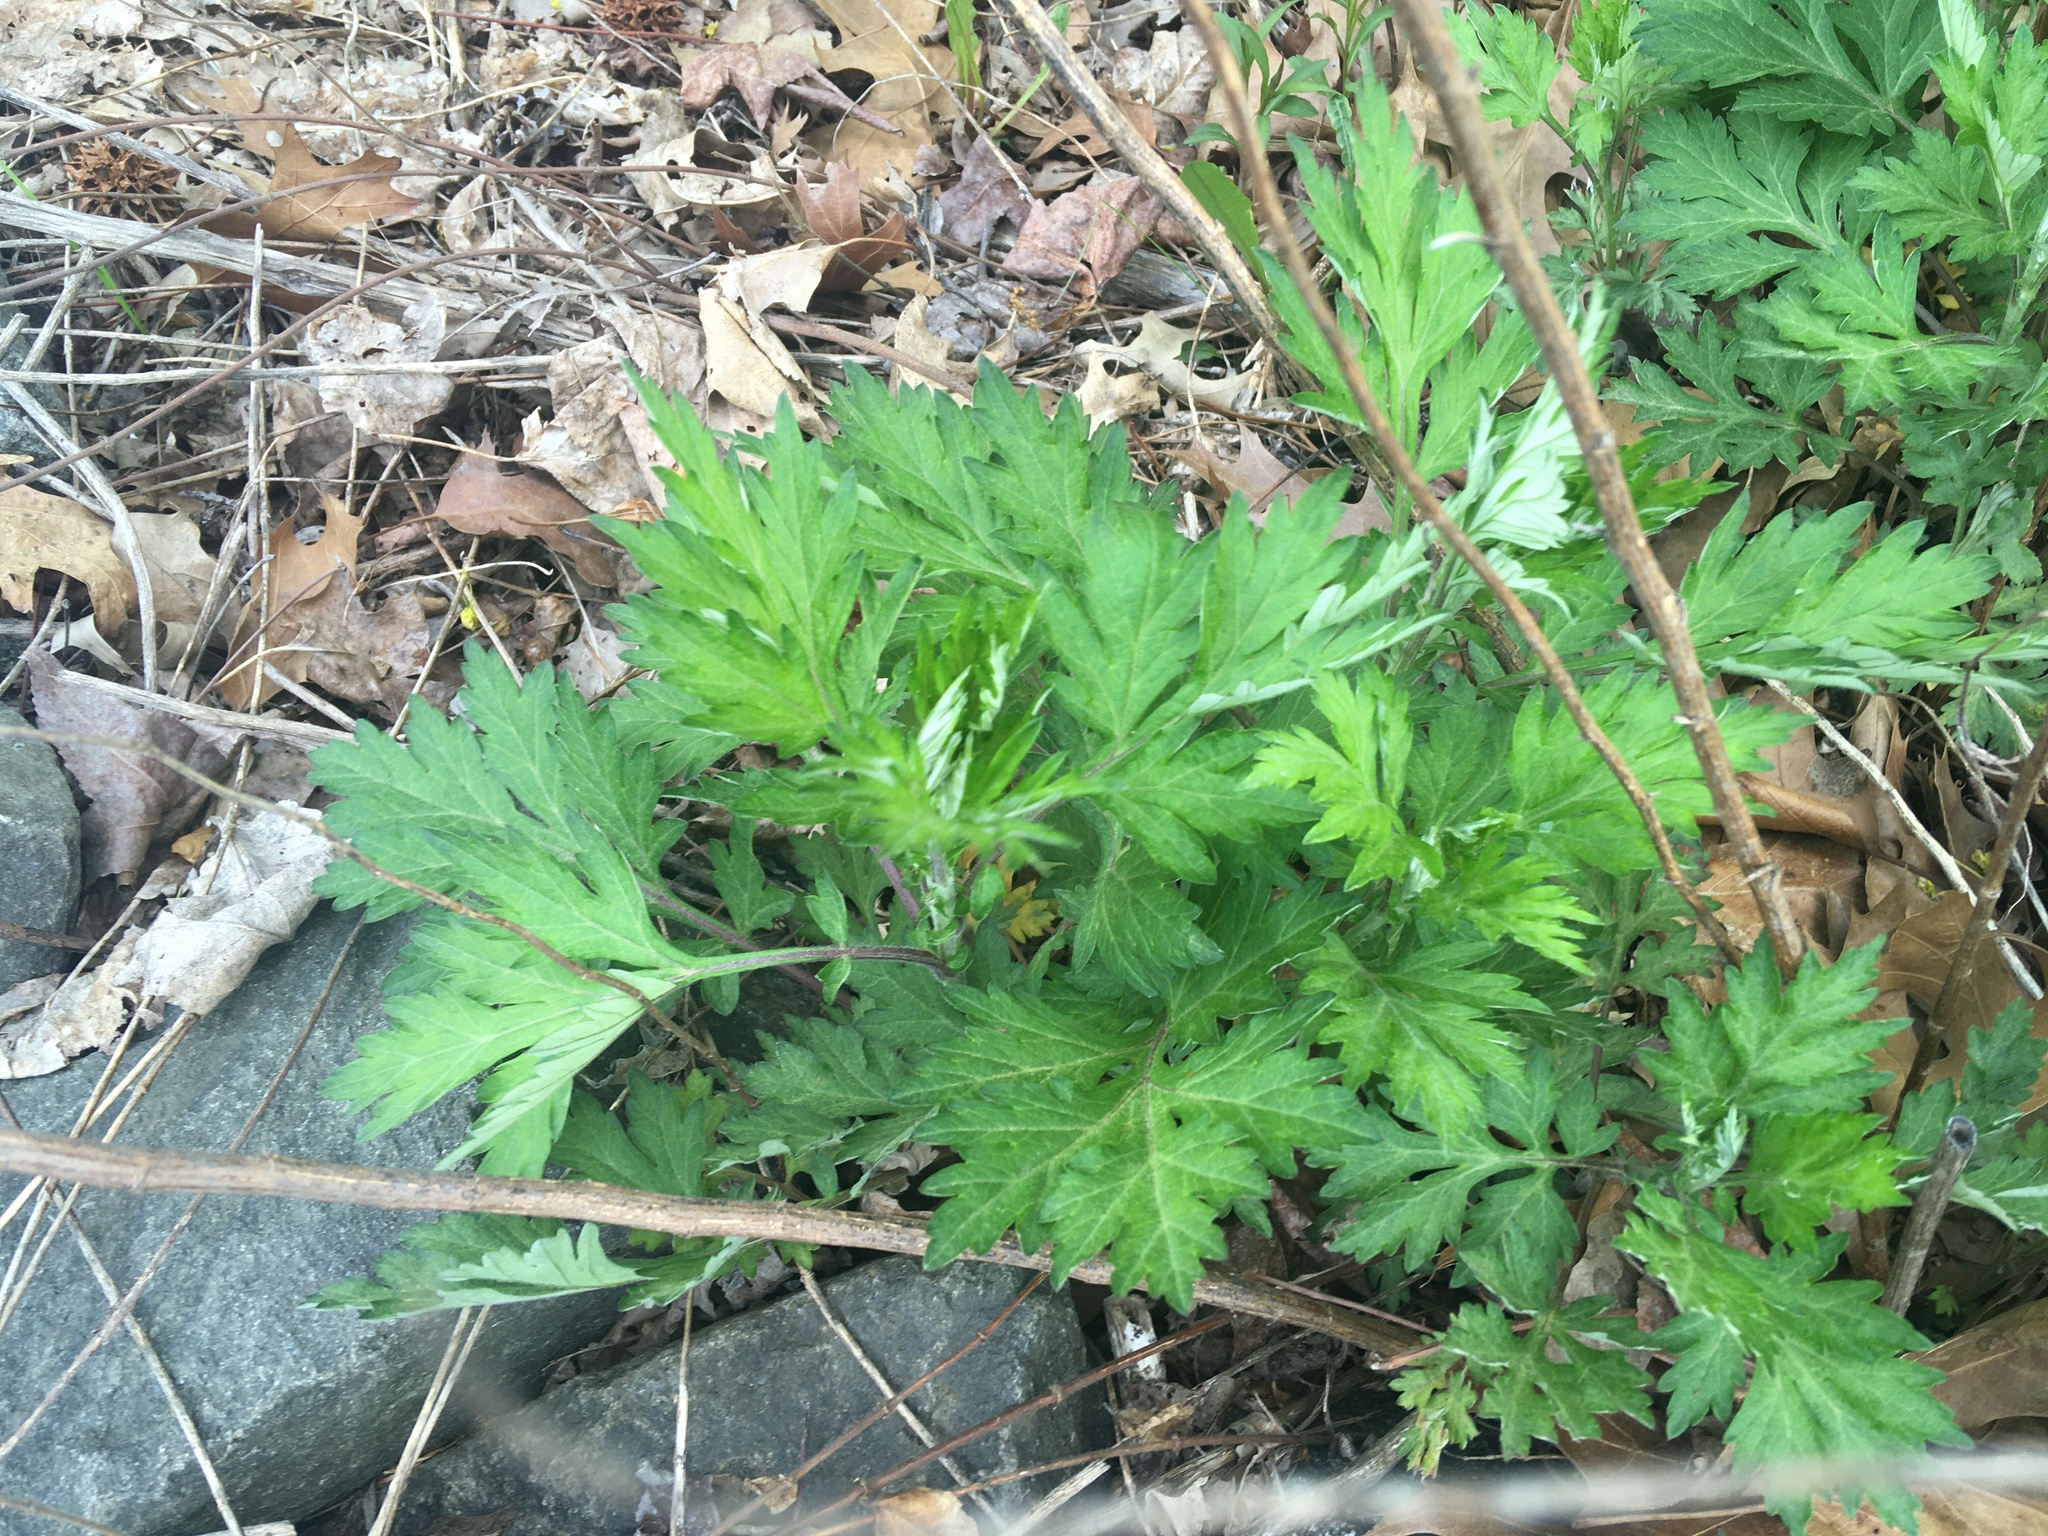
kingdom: Plantae
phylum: Tracheophyta
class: Magnoliopsida
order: Asterales
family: Asteraceae
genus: Artemisia
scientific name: Artemisia vulgaris
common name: Mugwort
